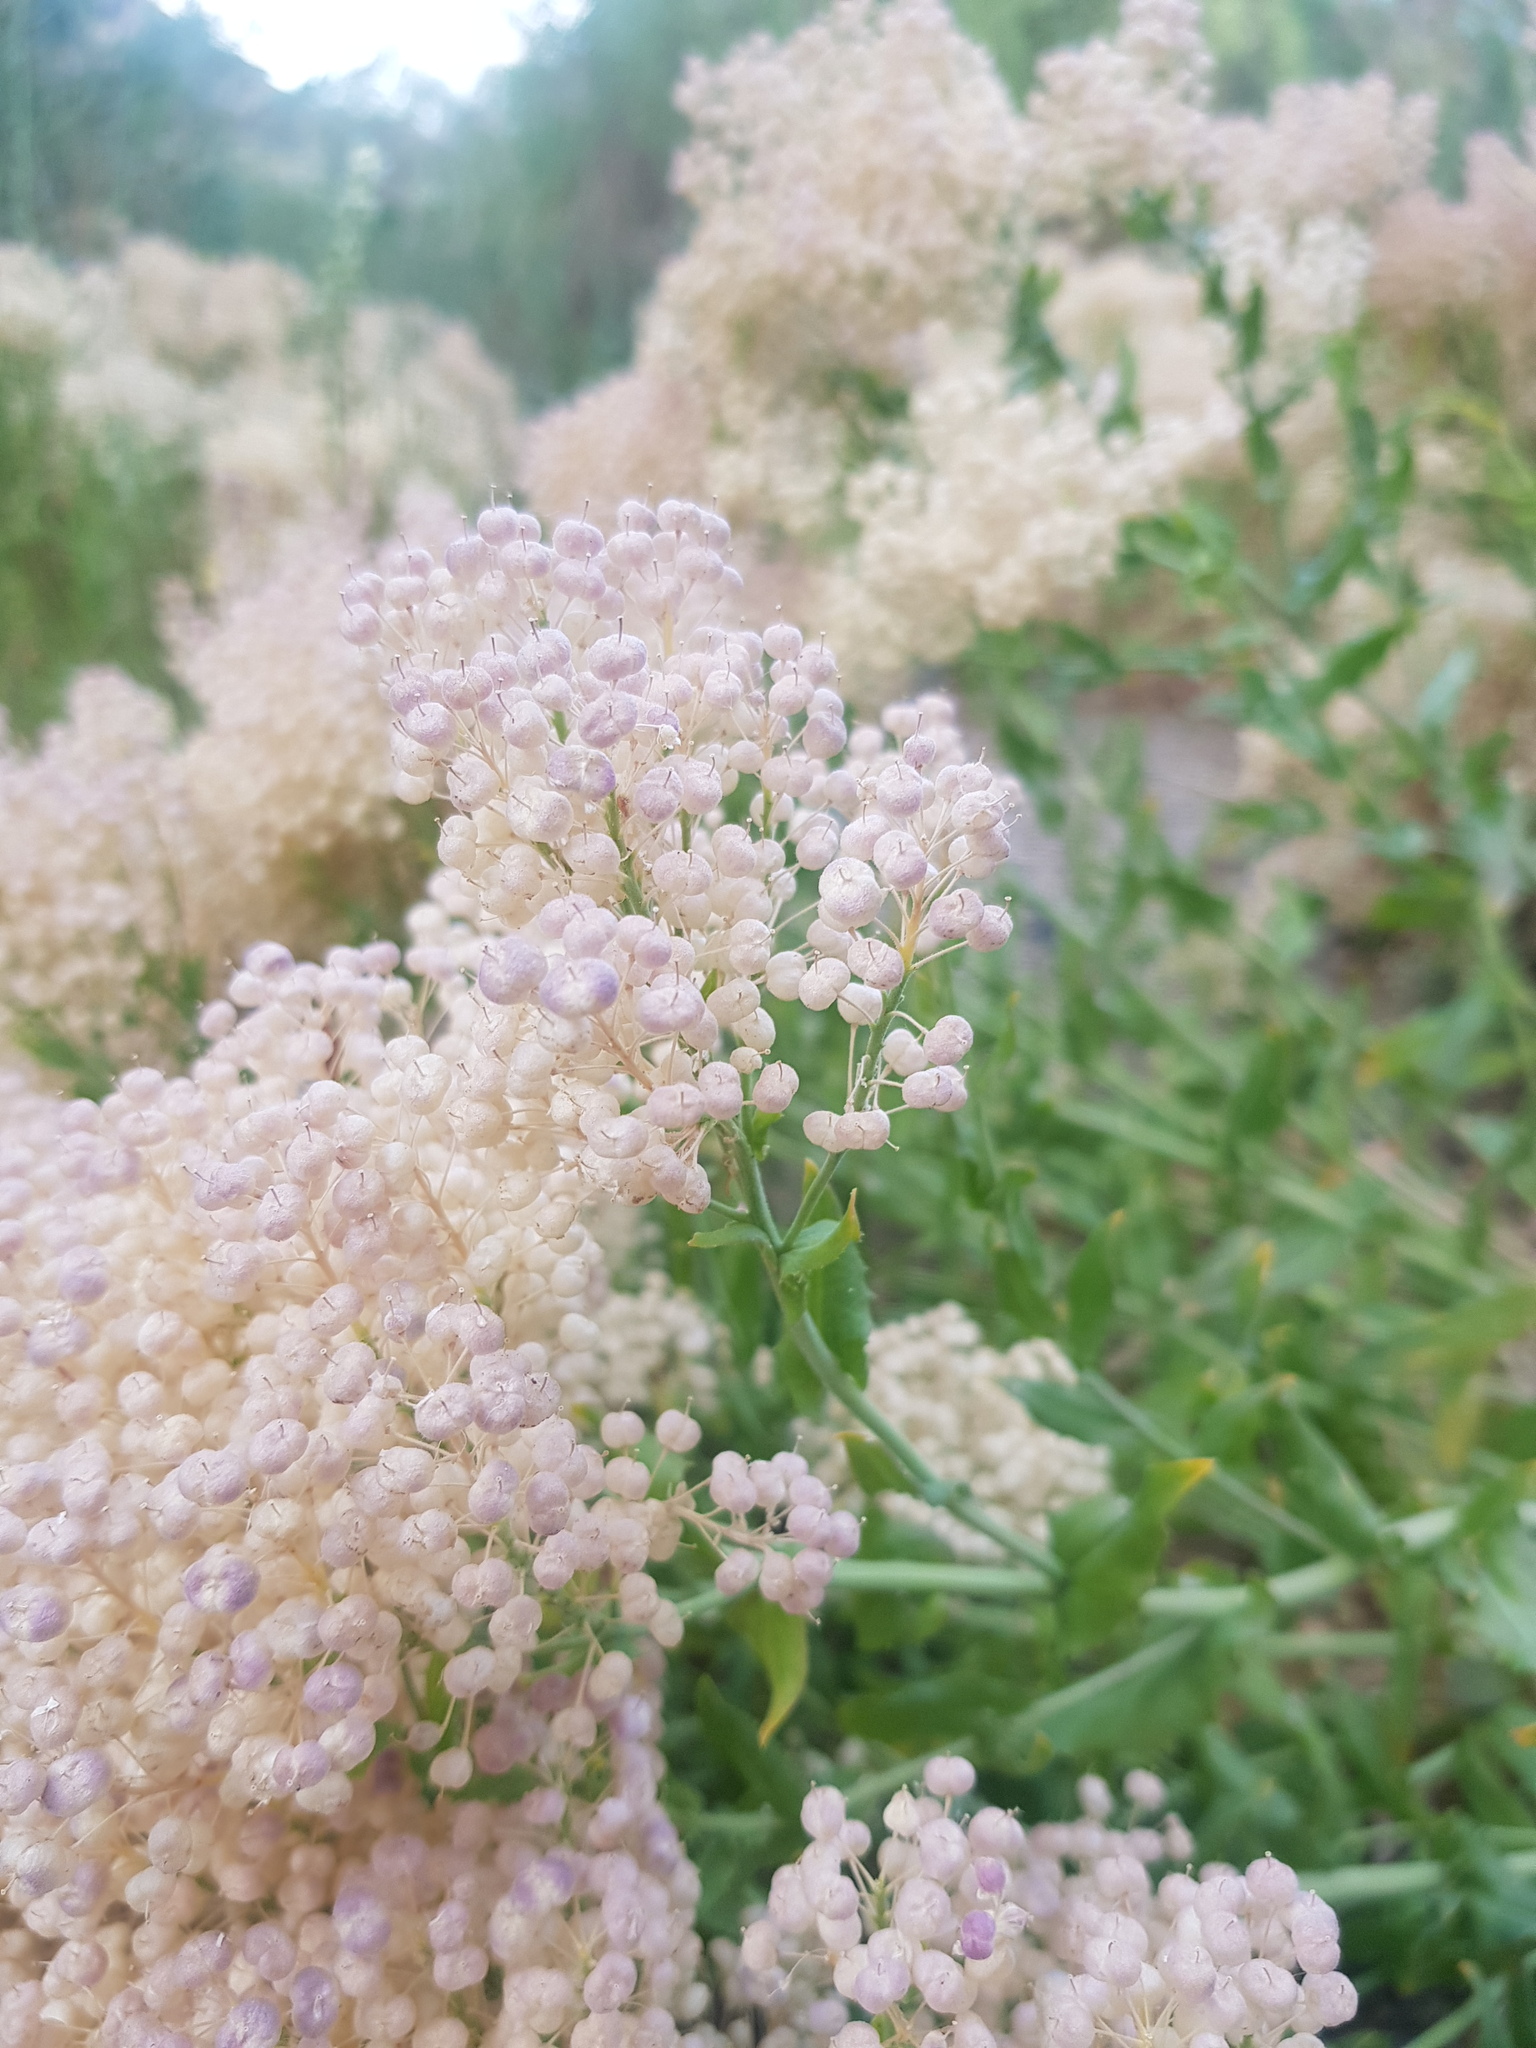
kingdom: Plantae
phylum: Tracheophyta
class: Magnoliopsida
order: Brassicales
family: Brassicaceae
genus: Lepidium
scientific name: Lepidium appelianum
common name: Hairy whitetop
